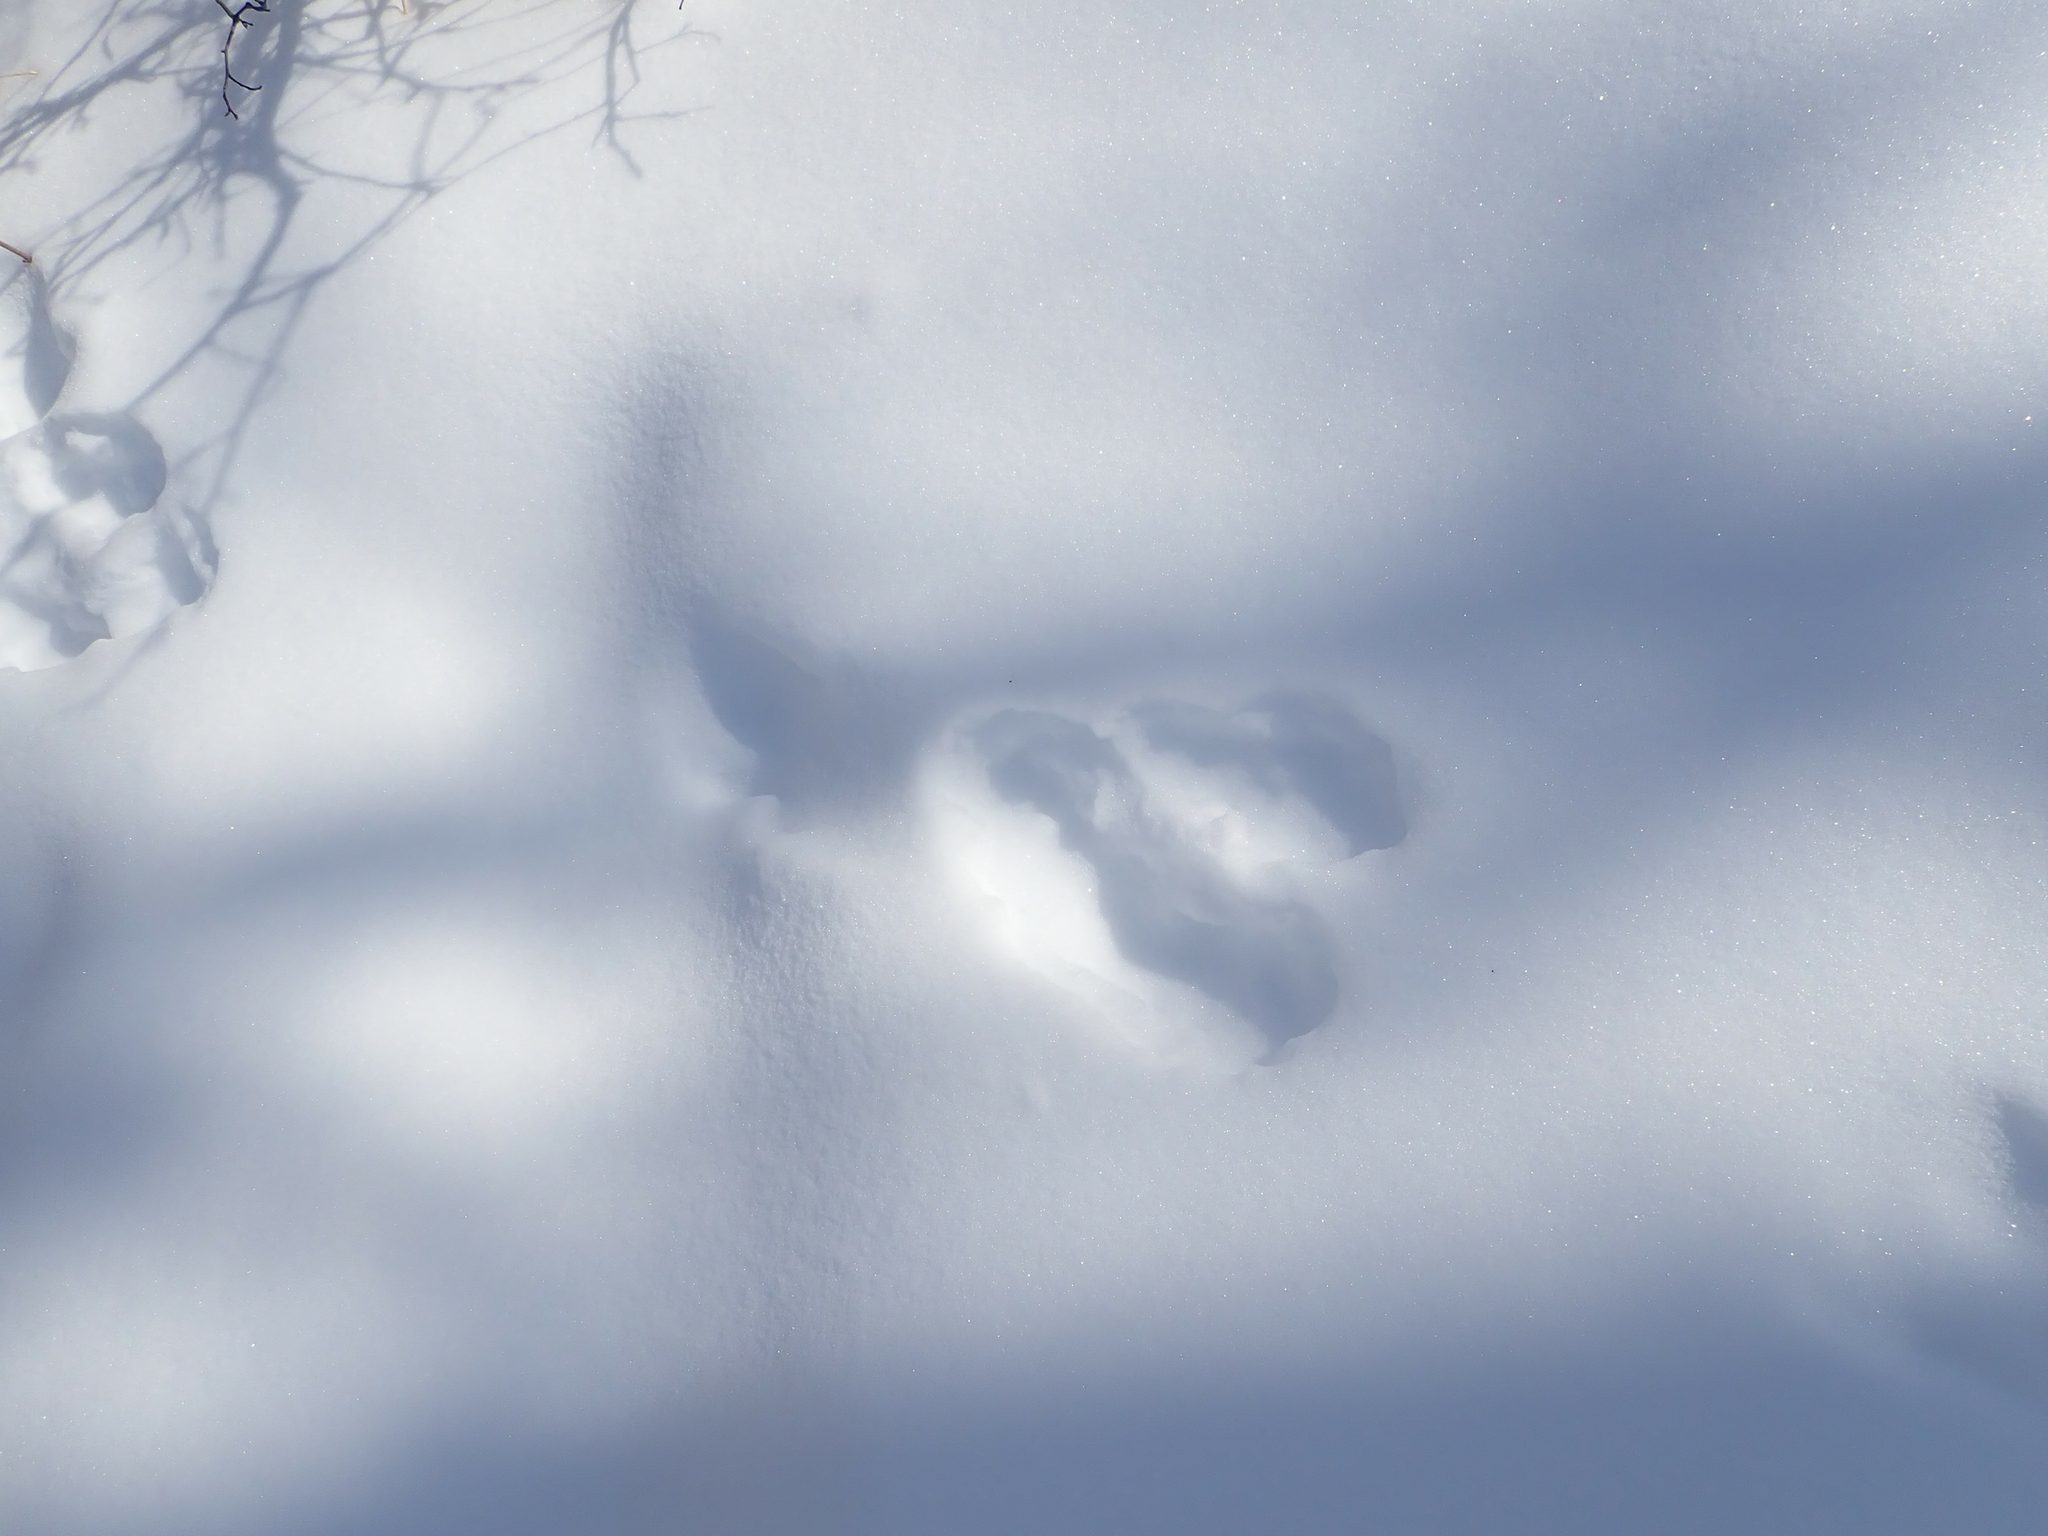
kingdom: Animalia
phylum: Chordata
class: Mammalia
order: Lagomorpha
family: Leporidae
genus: Lepus
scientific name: Lepus americanus
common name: Snowshoe hare
